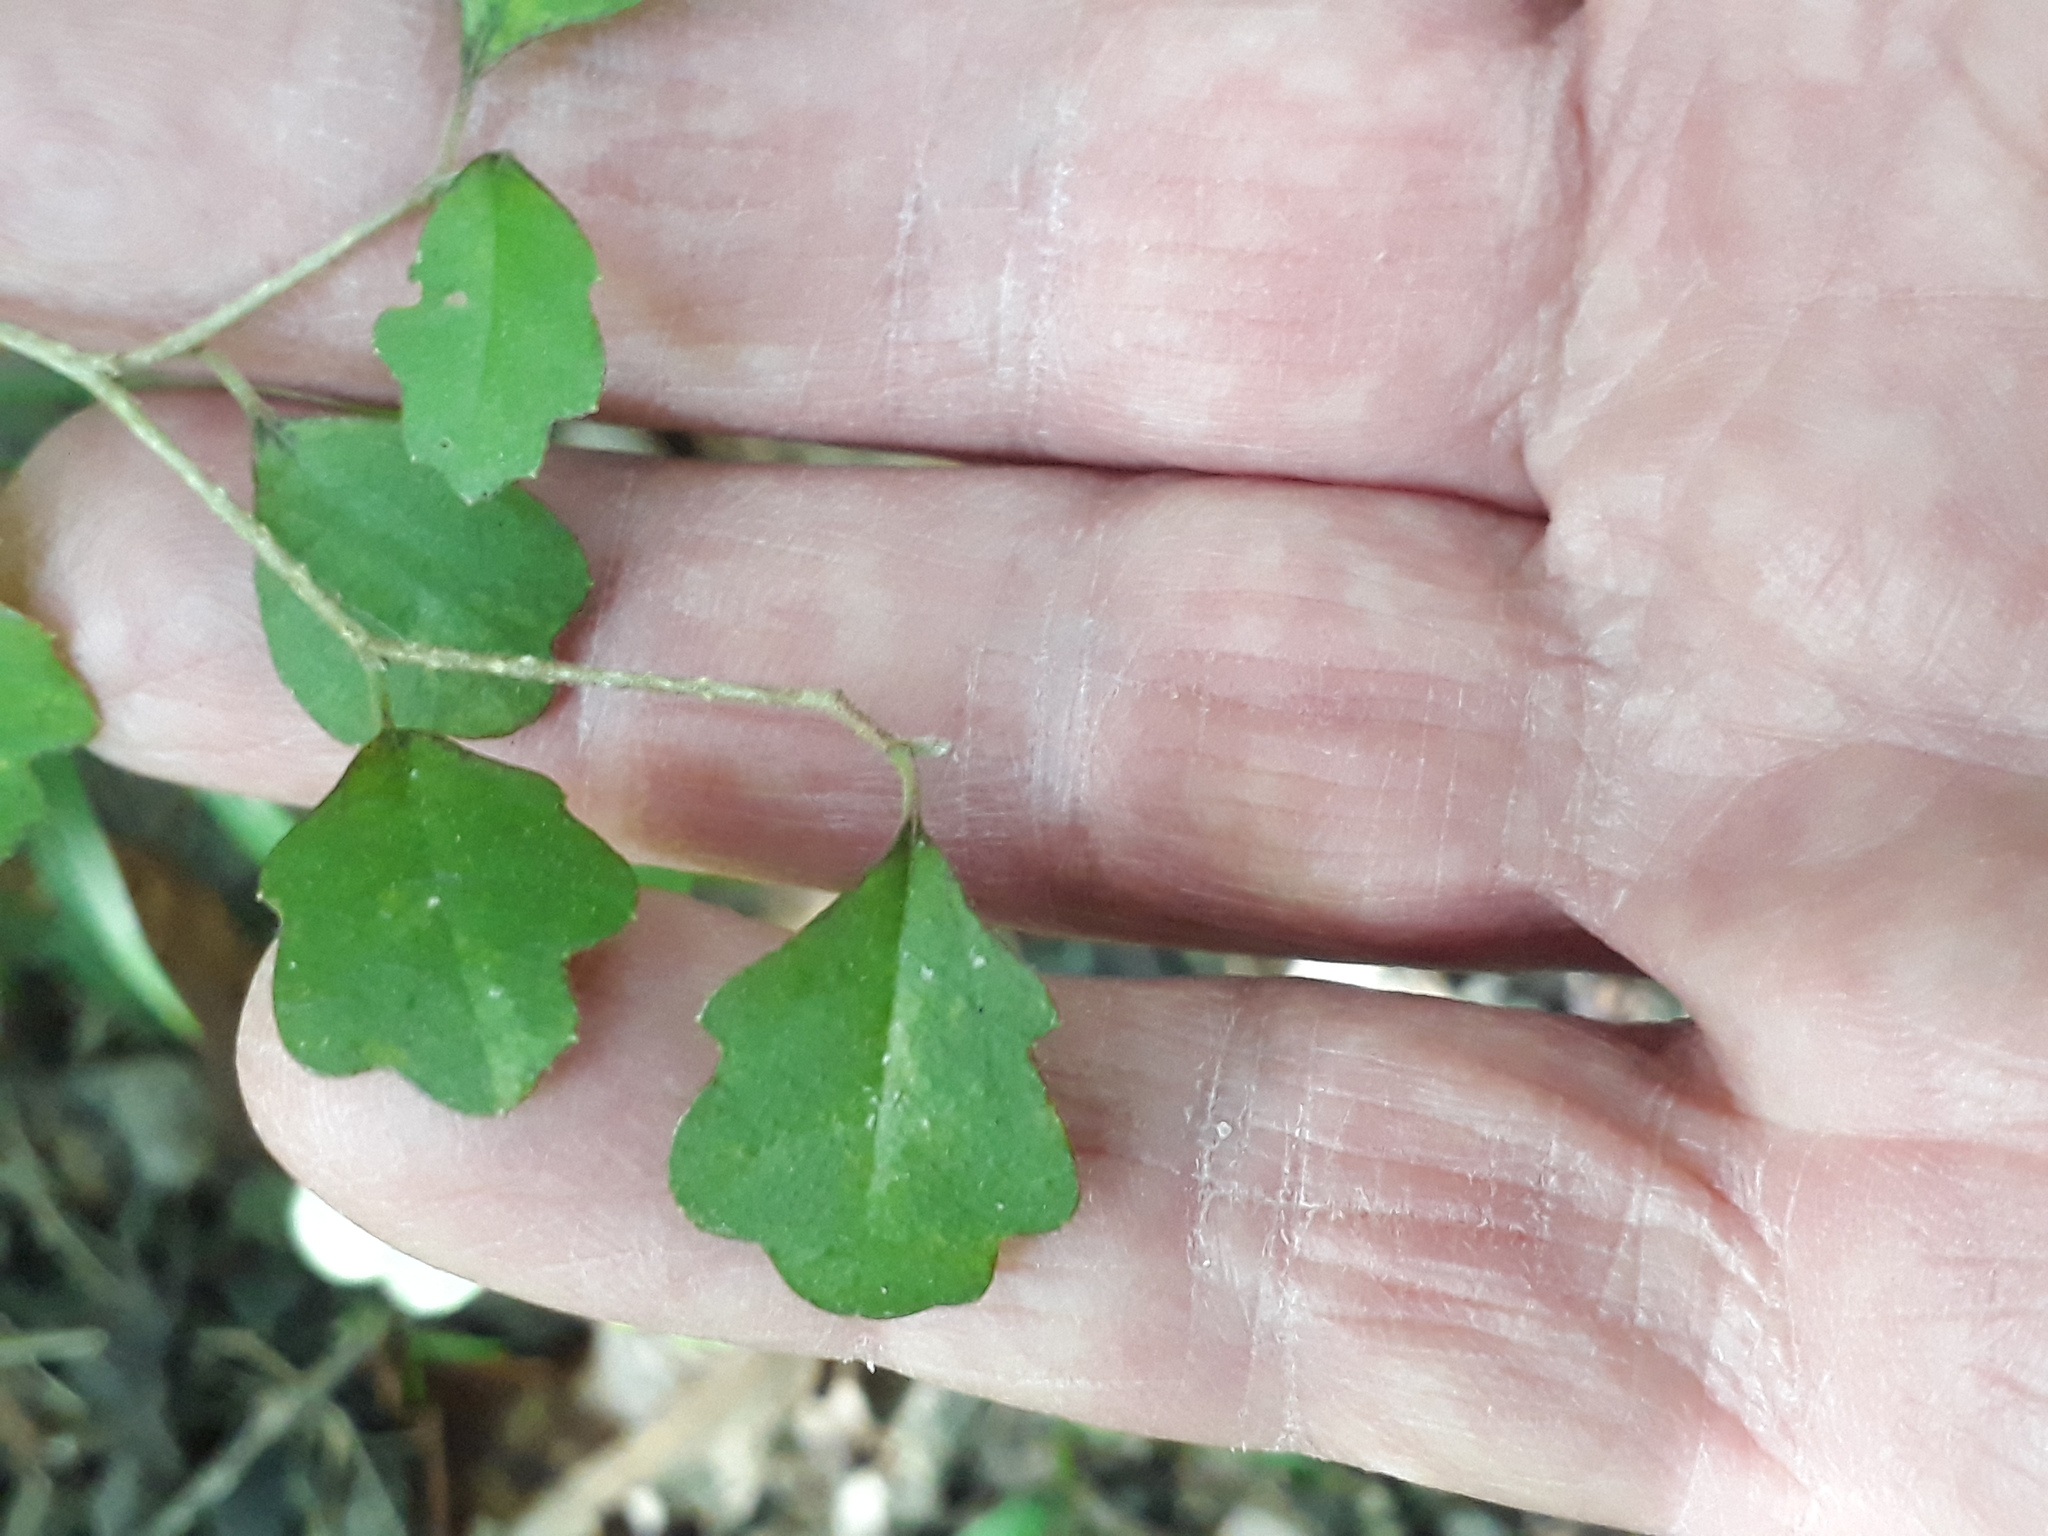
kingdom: Plantae
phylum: Tracheophyta
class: Magnoliopsida
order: Apiales
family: Pennantiaceae
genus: Pennantia
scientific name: Pennantia corymbosa
